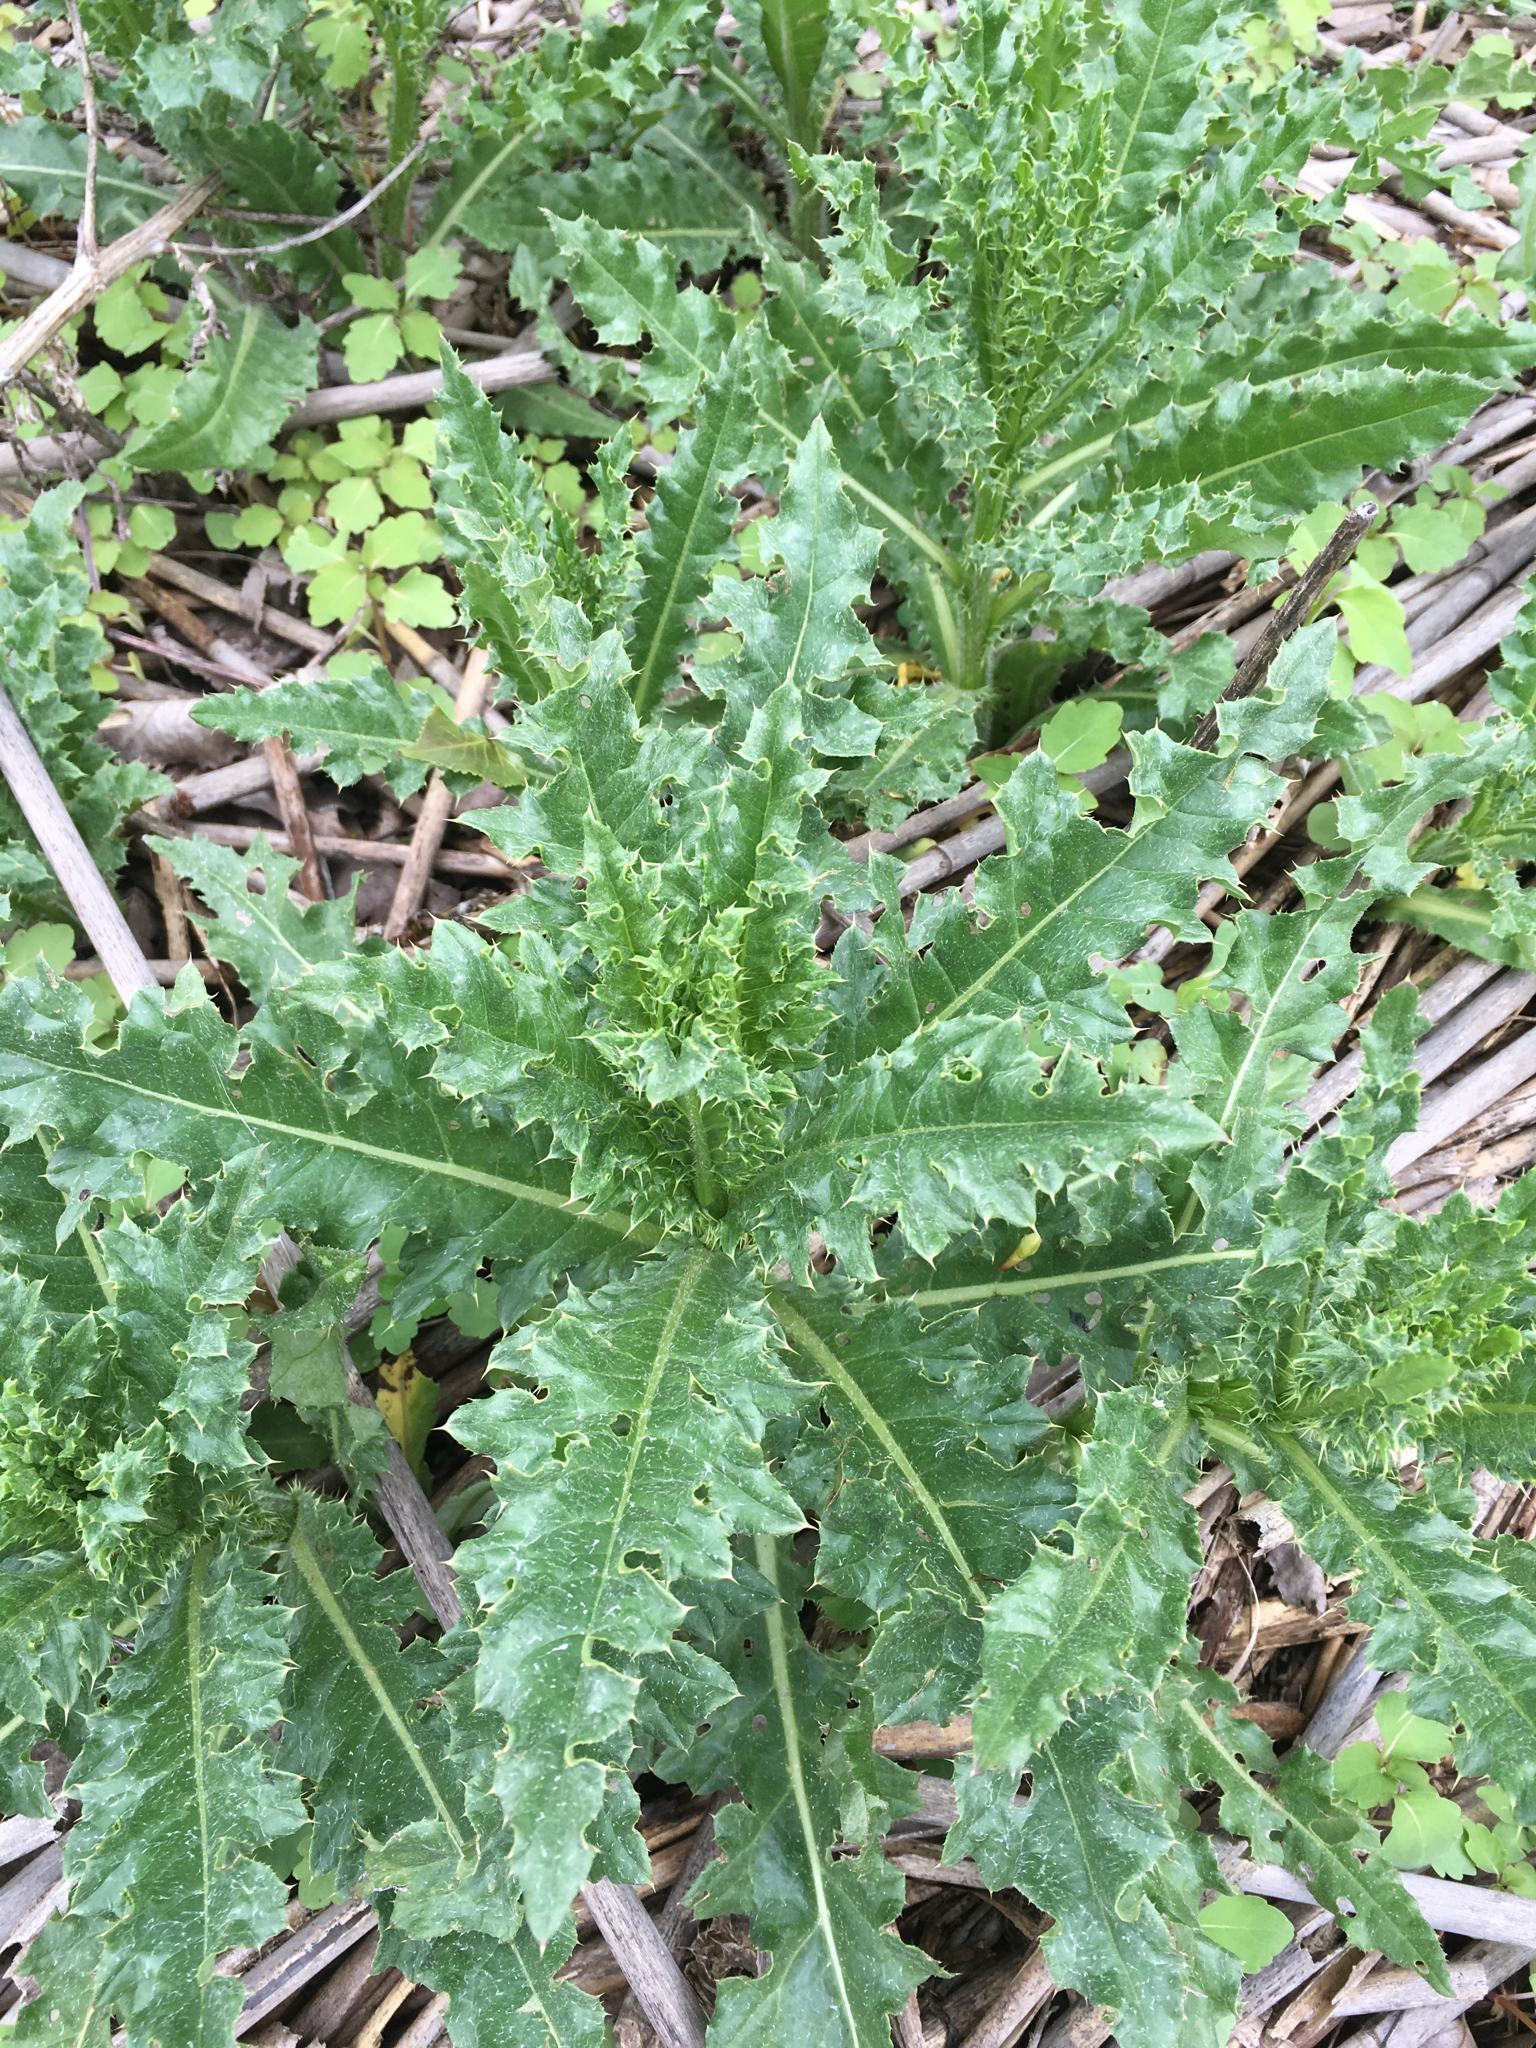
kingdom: Plantae
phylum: Tracheophyta
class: Magnoliopsida
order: Asterales
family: Asteraceae
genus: Cirsium
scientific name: Cirsium arvense
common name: Creeping thistle
